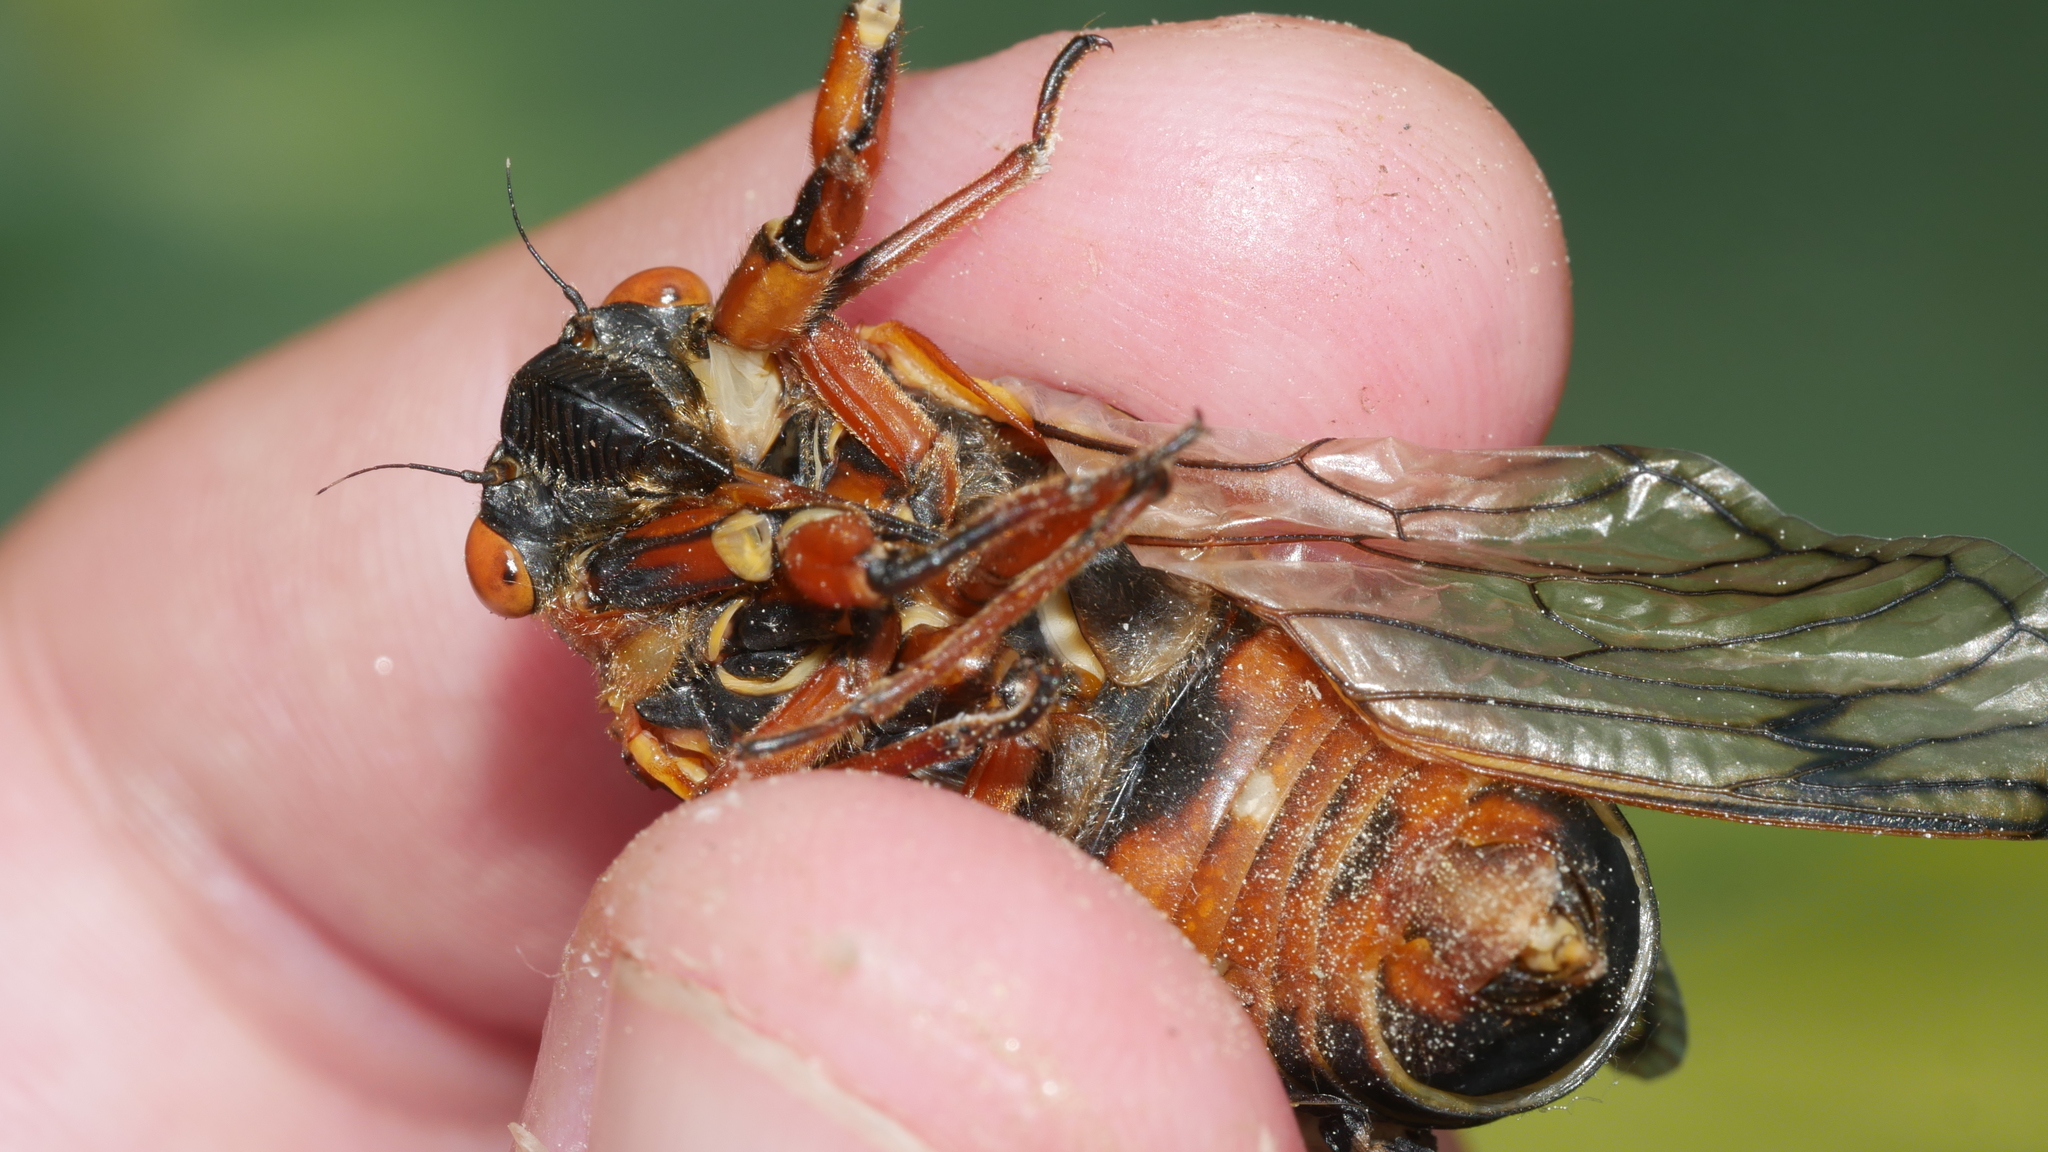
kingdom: Animalia
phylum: Arthropoda
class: Insecta
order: Hemiptera
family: Cicadidae
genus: Magicicada
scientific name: Magicicada septendecim
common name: Periodical cicada
